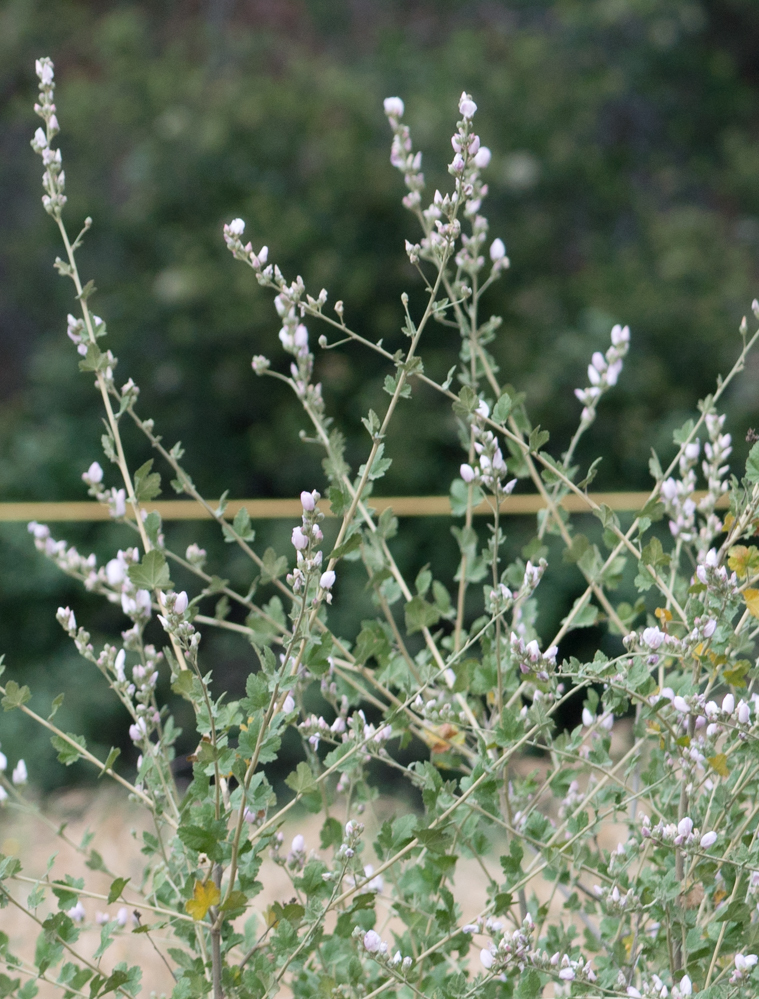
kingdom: Plantae
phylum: Tracheophyta
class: Magnoliopsida
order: Malvales
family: Malvaceae
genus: Malacothamnus
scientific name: Malacothamnus fasciculatus
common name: Sant cruz island bush-mallow
